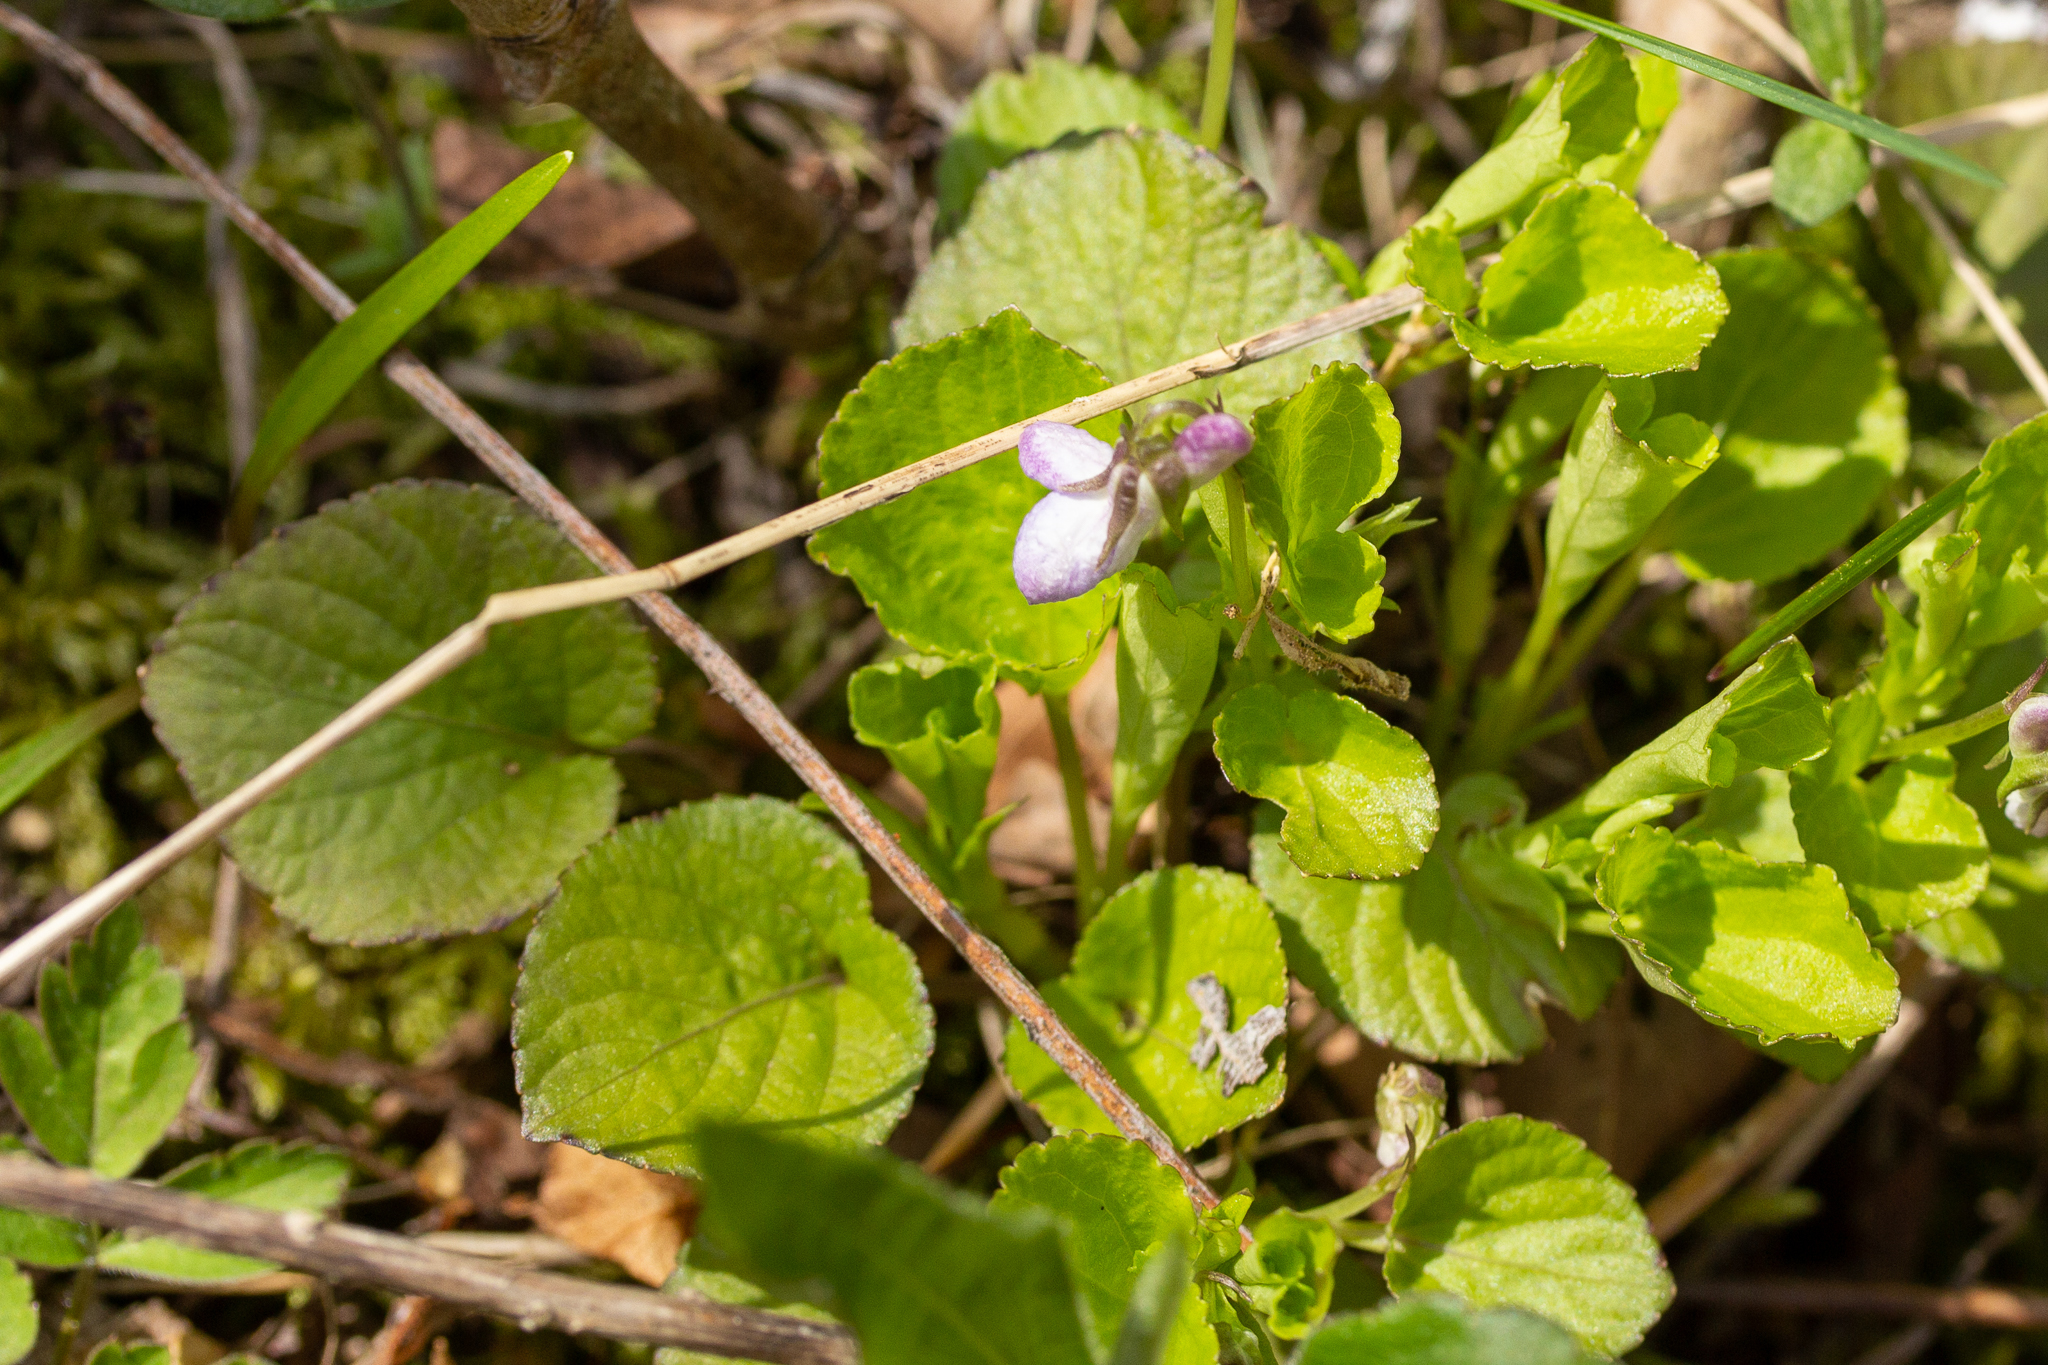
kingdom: Plantae
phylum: Tracheophyta
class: Magnoliopsida
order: Malpighiales
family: Violaceae
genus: Viola
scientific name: Viola labradorica
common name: Labrador violet
